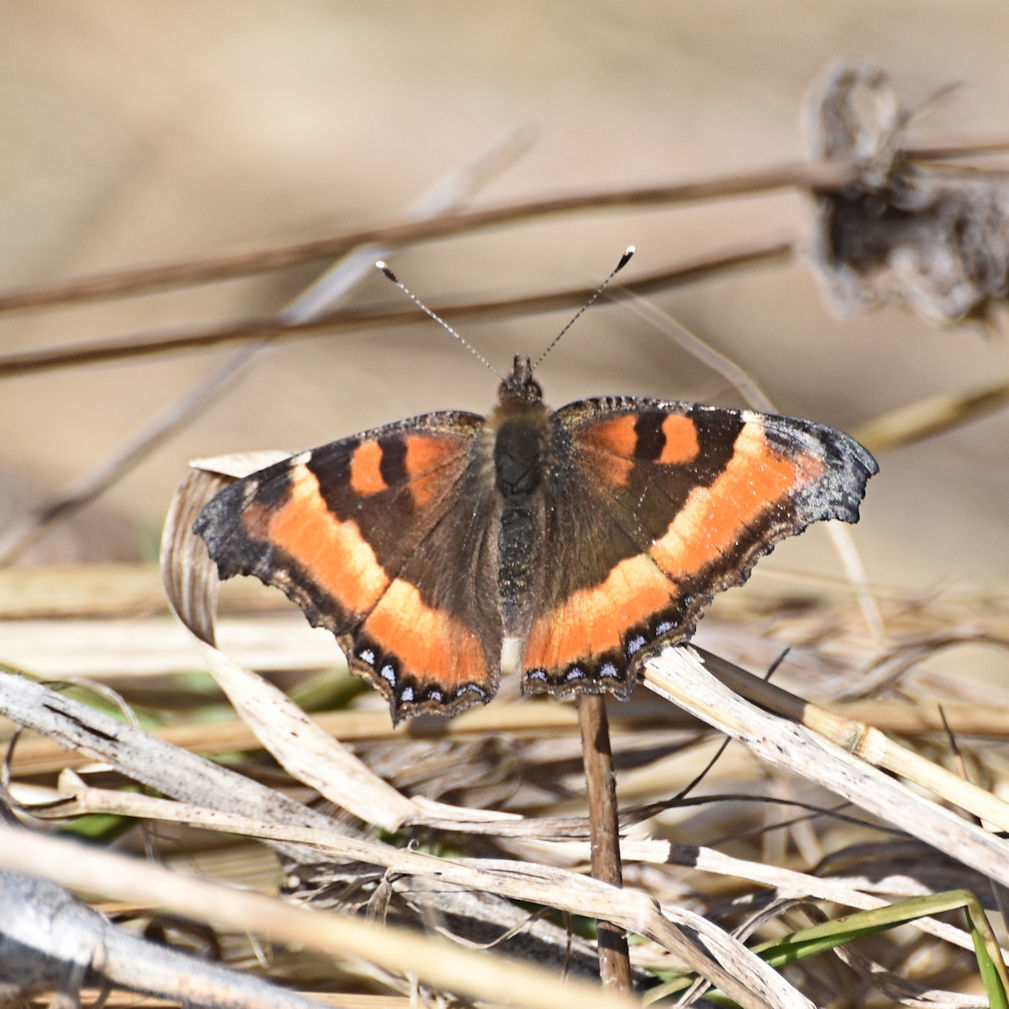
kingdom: Animalia
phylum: Arthropoda
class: Insecta
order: Lepidoptera
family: Nymphalidae
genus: Aglais
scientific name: Aglais milberti
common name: Milbert's tortoiseshell
